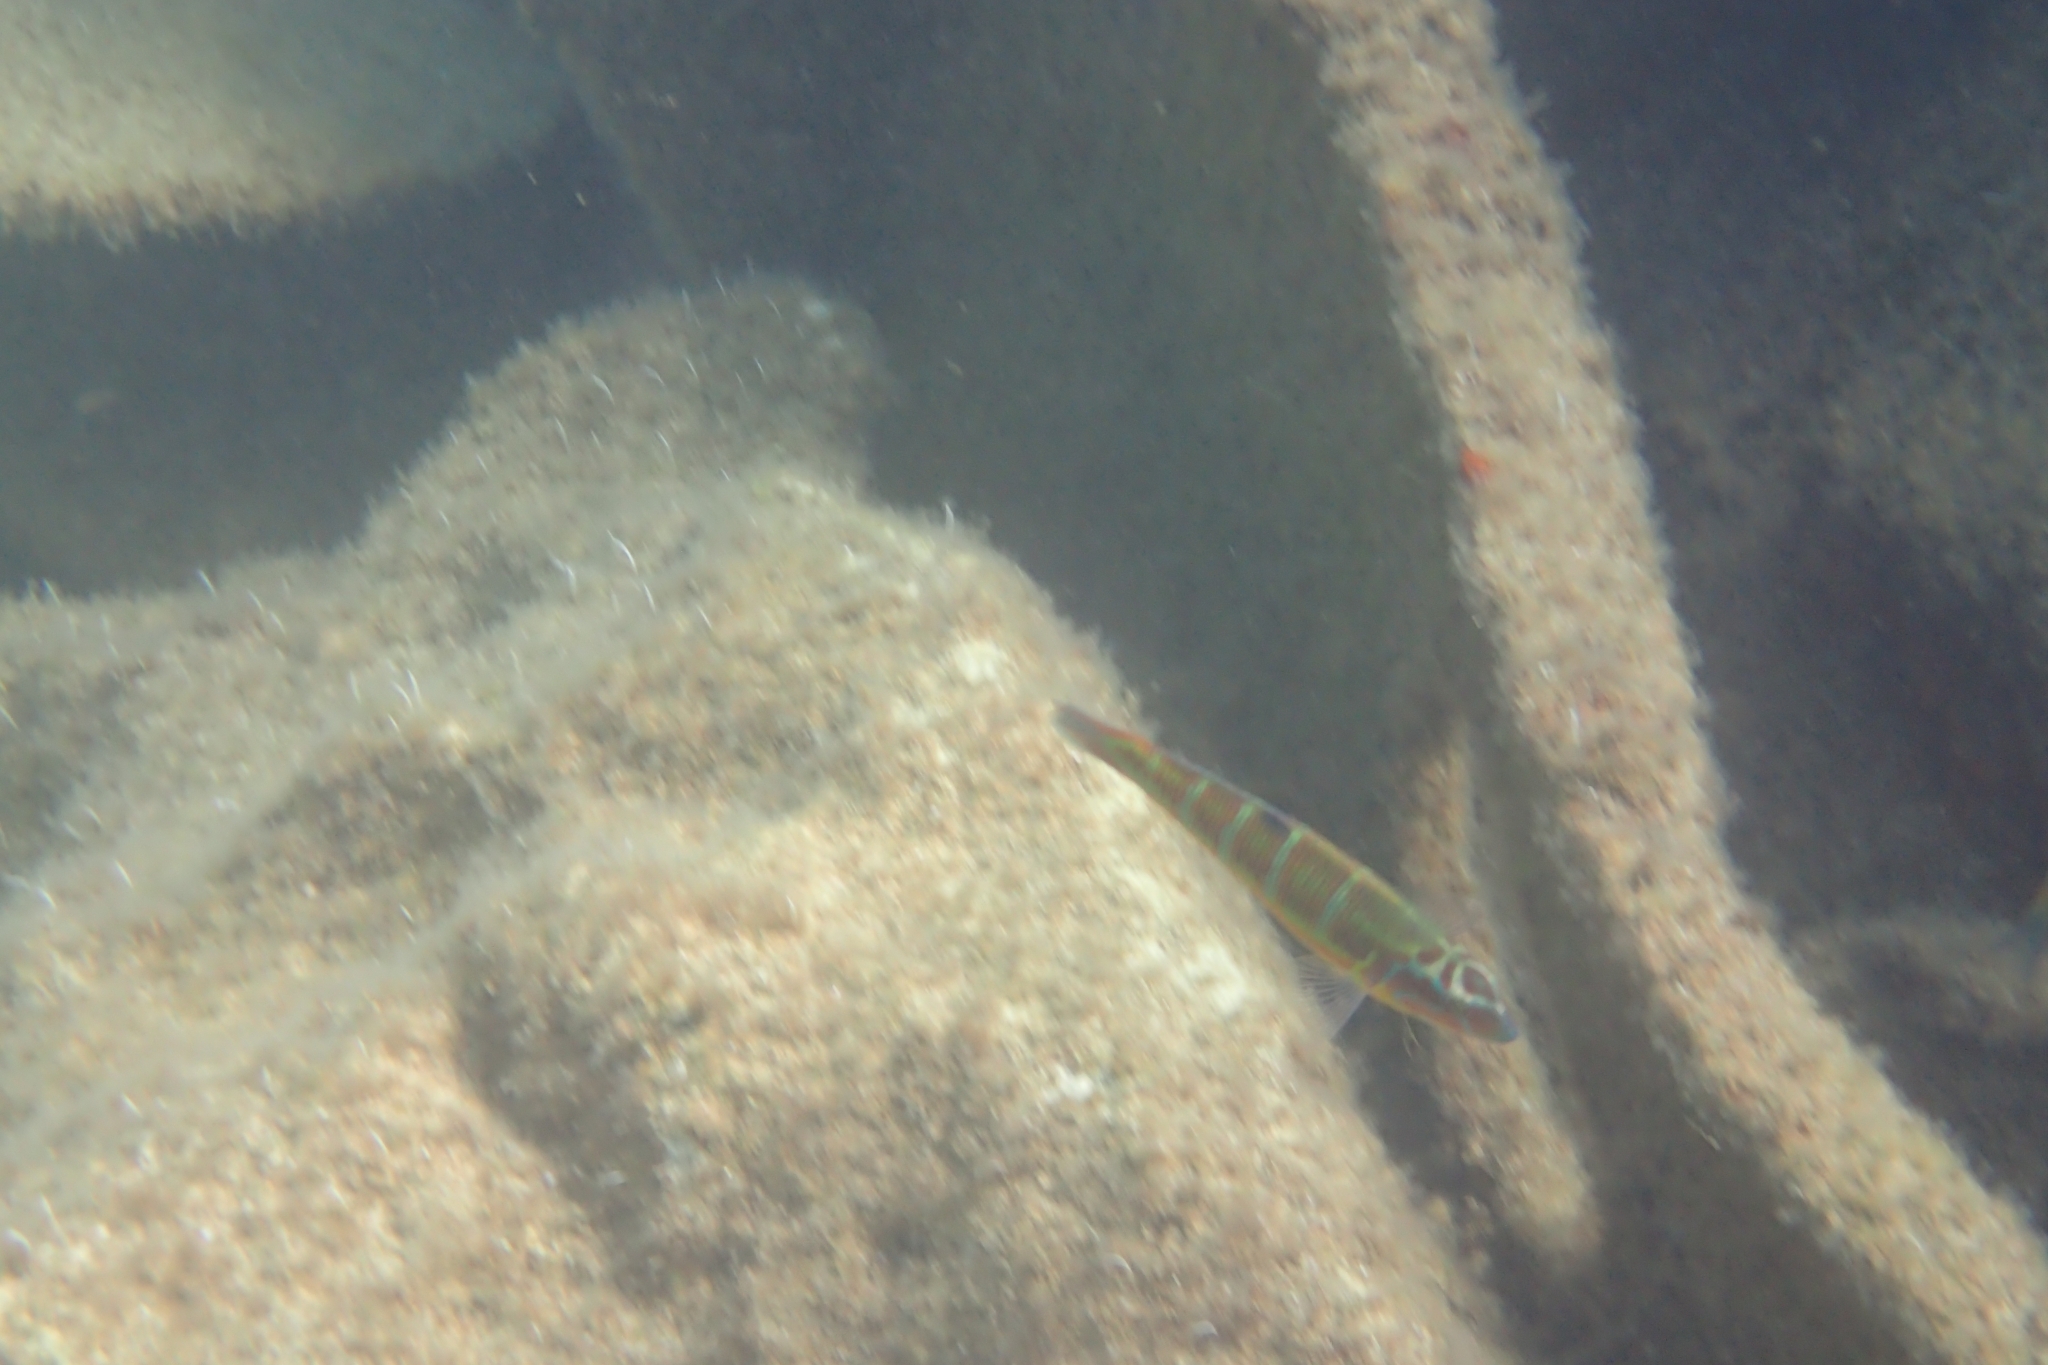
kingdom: Animalia
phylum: Chordata
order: Perciformes
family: Labridae
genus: Thalassoma
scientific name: Thalassoma pavo
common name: Ornate wrasse
